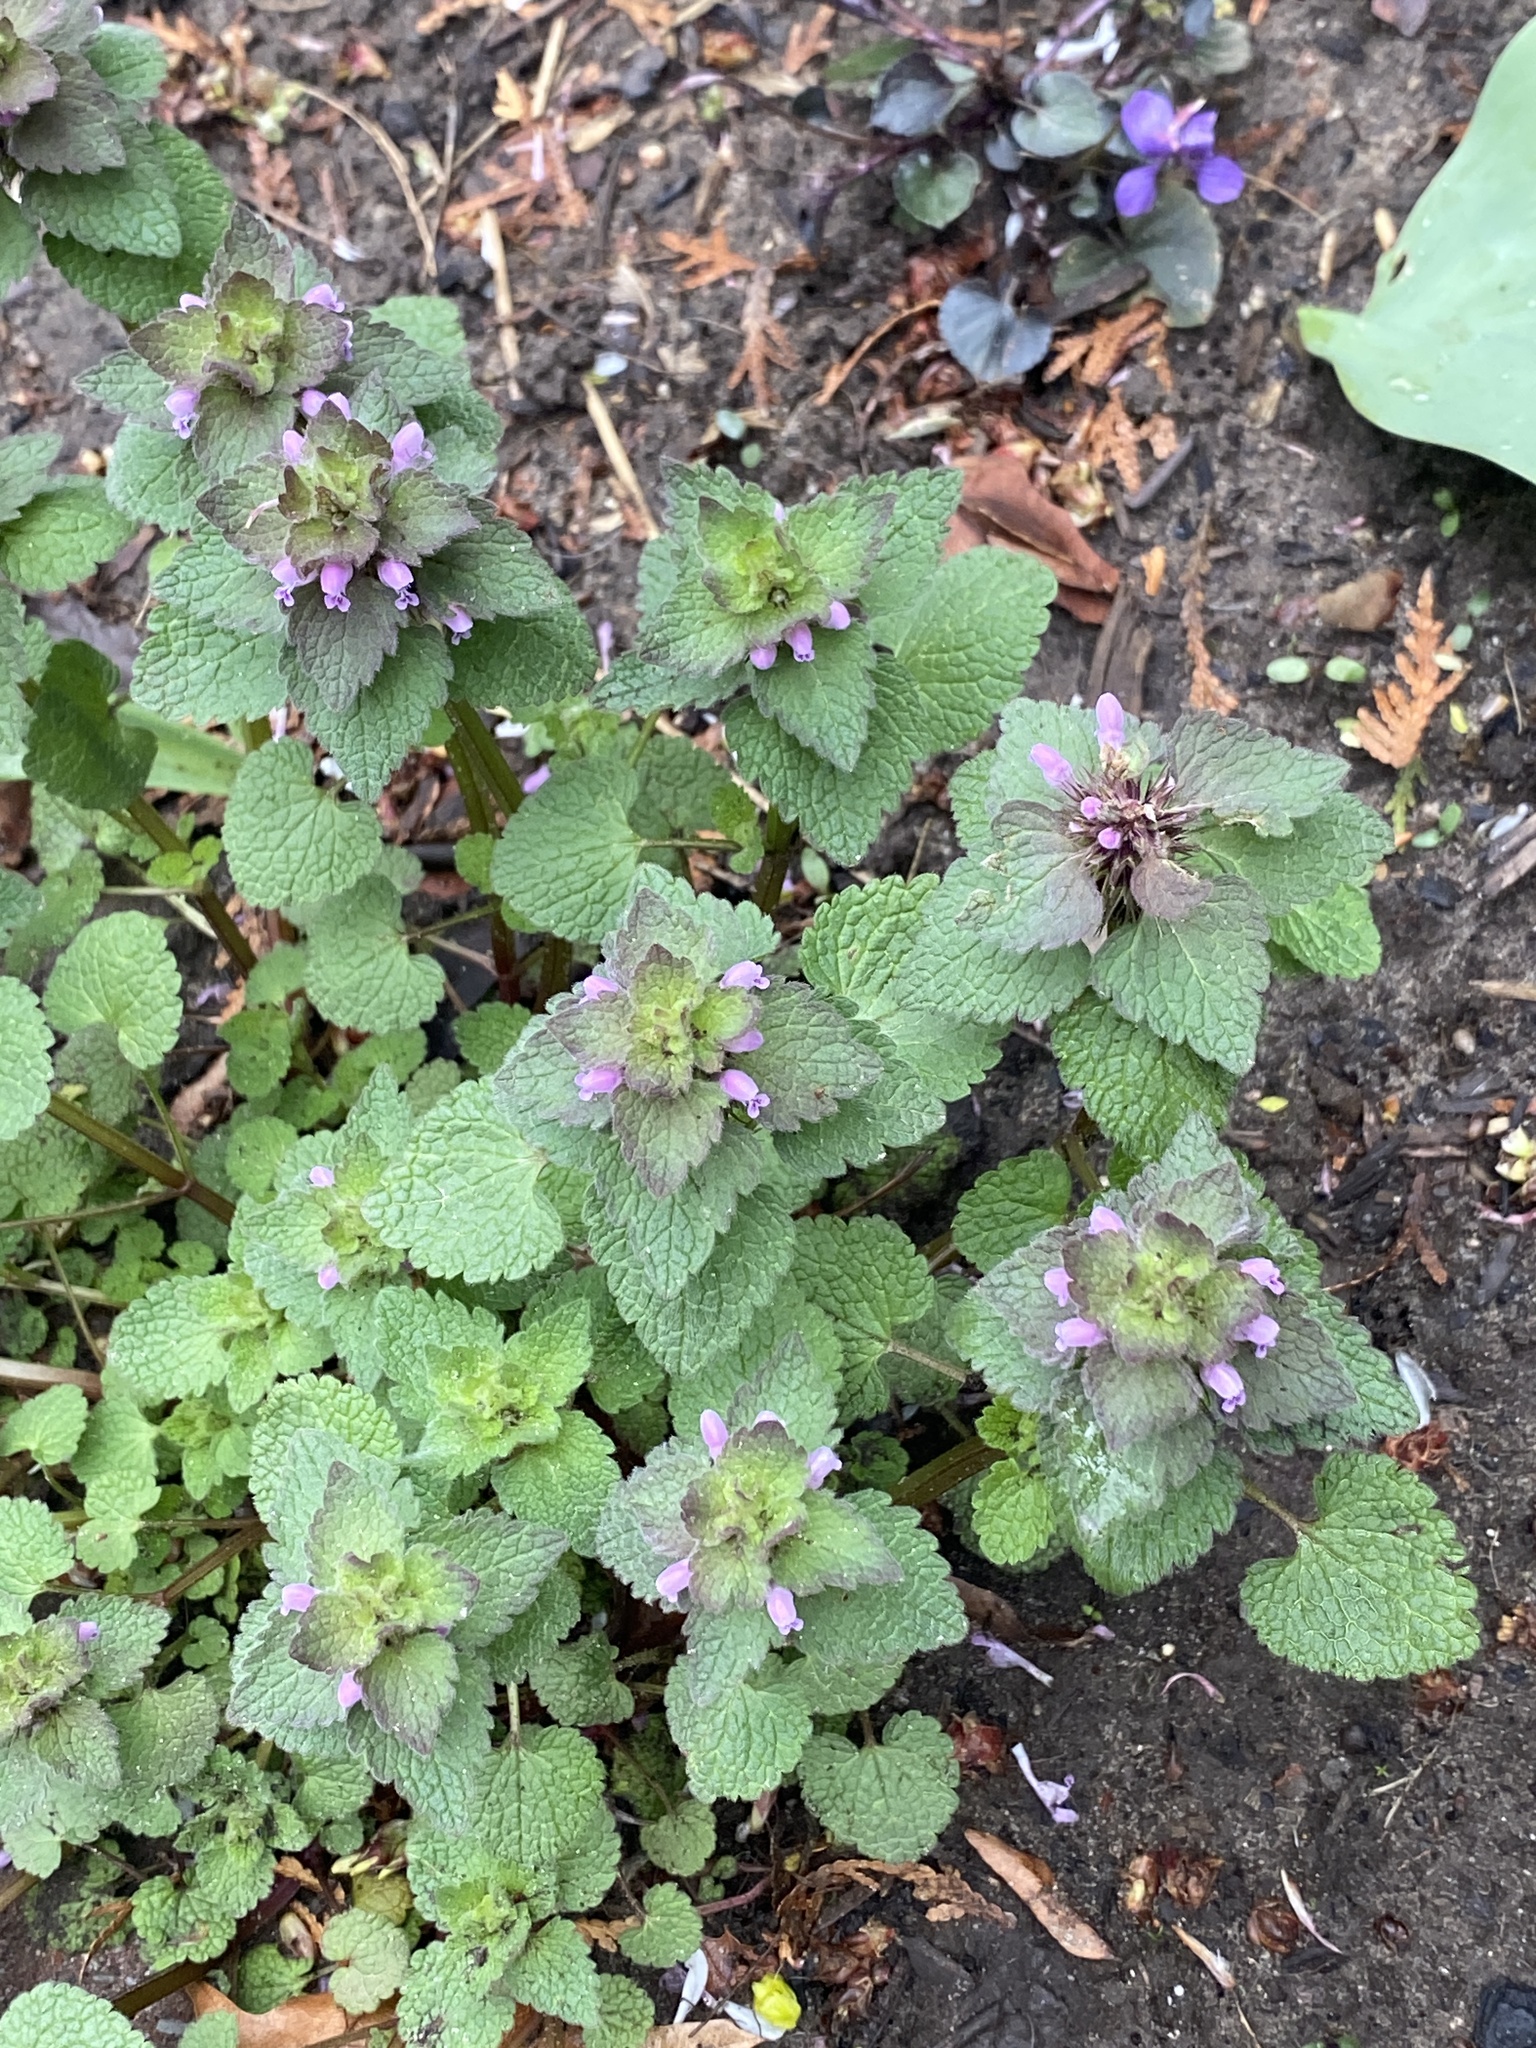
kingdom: Plantae
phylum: Tracheophyta
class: Magnoliopsida
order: Lamiales
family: Lamiaceae
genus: Lamium
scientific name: Lamium purpureum
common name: Red dead-nettle
